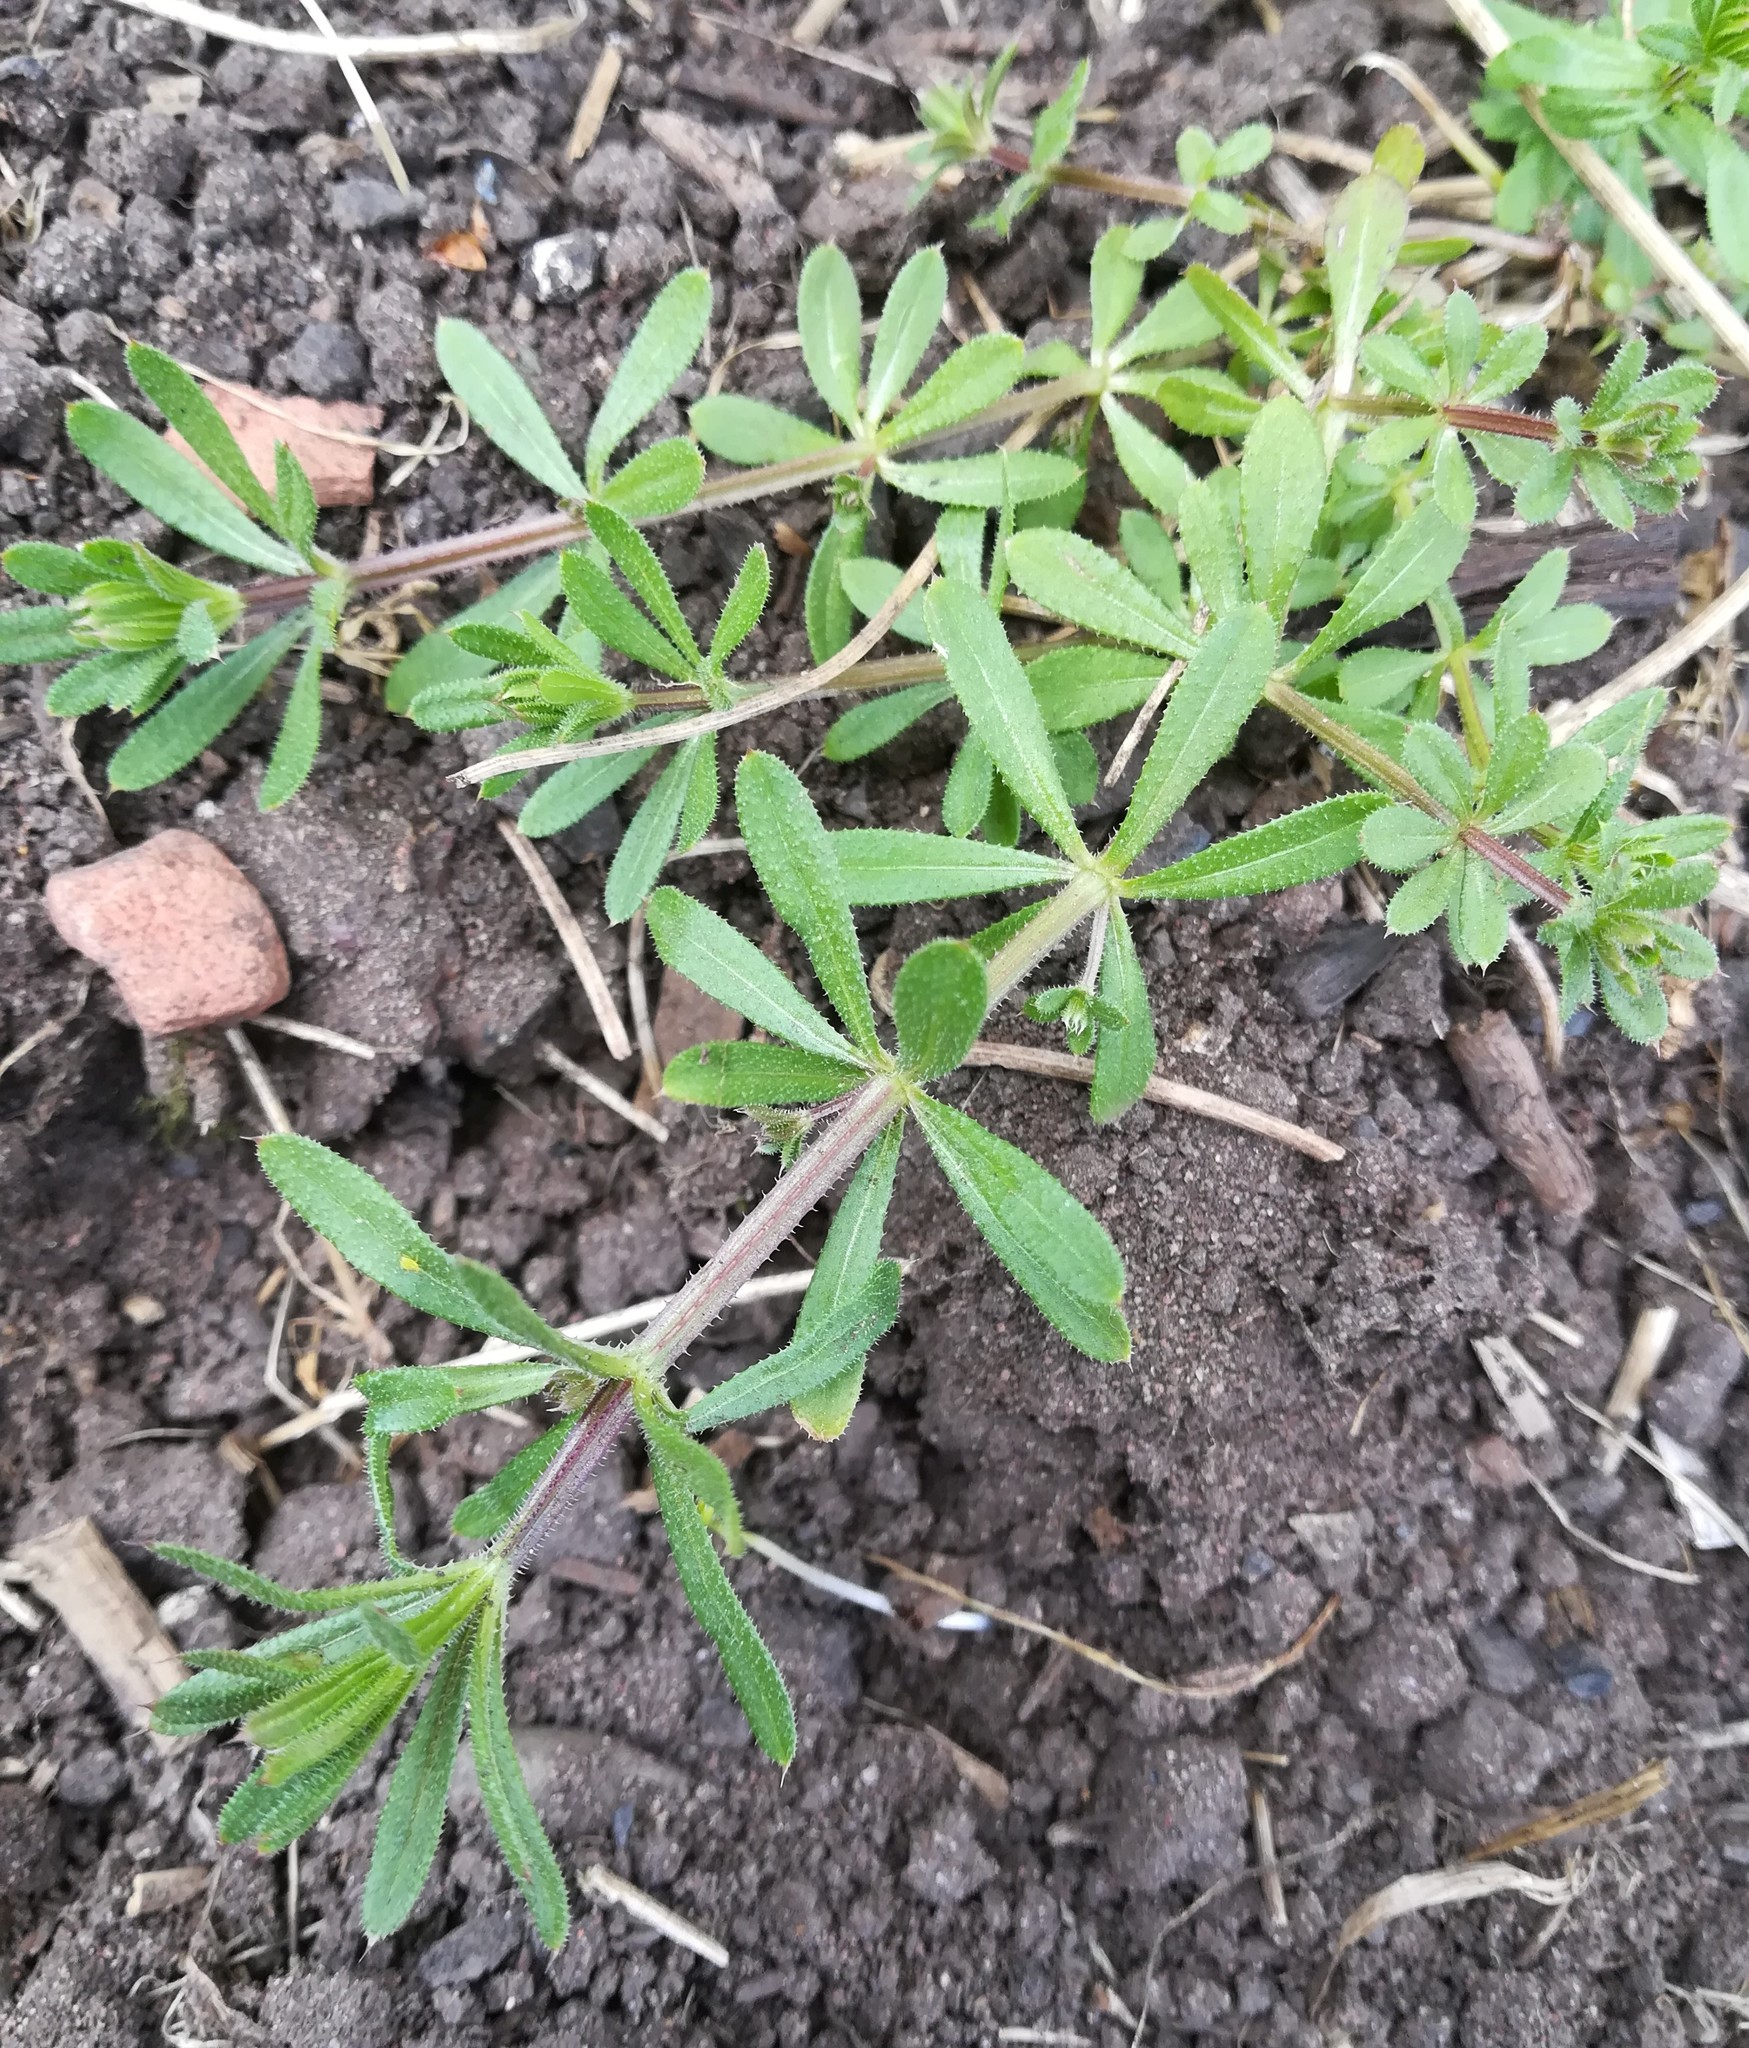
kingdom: Plantae
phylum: Tracheophyta
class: Magnoliopsida
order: Gentianales
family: Rubiaceae
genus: Galium
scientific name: Galium aparine
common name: Cleavers
